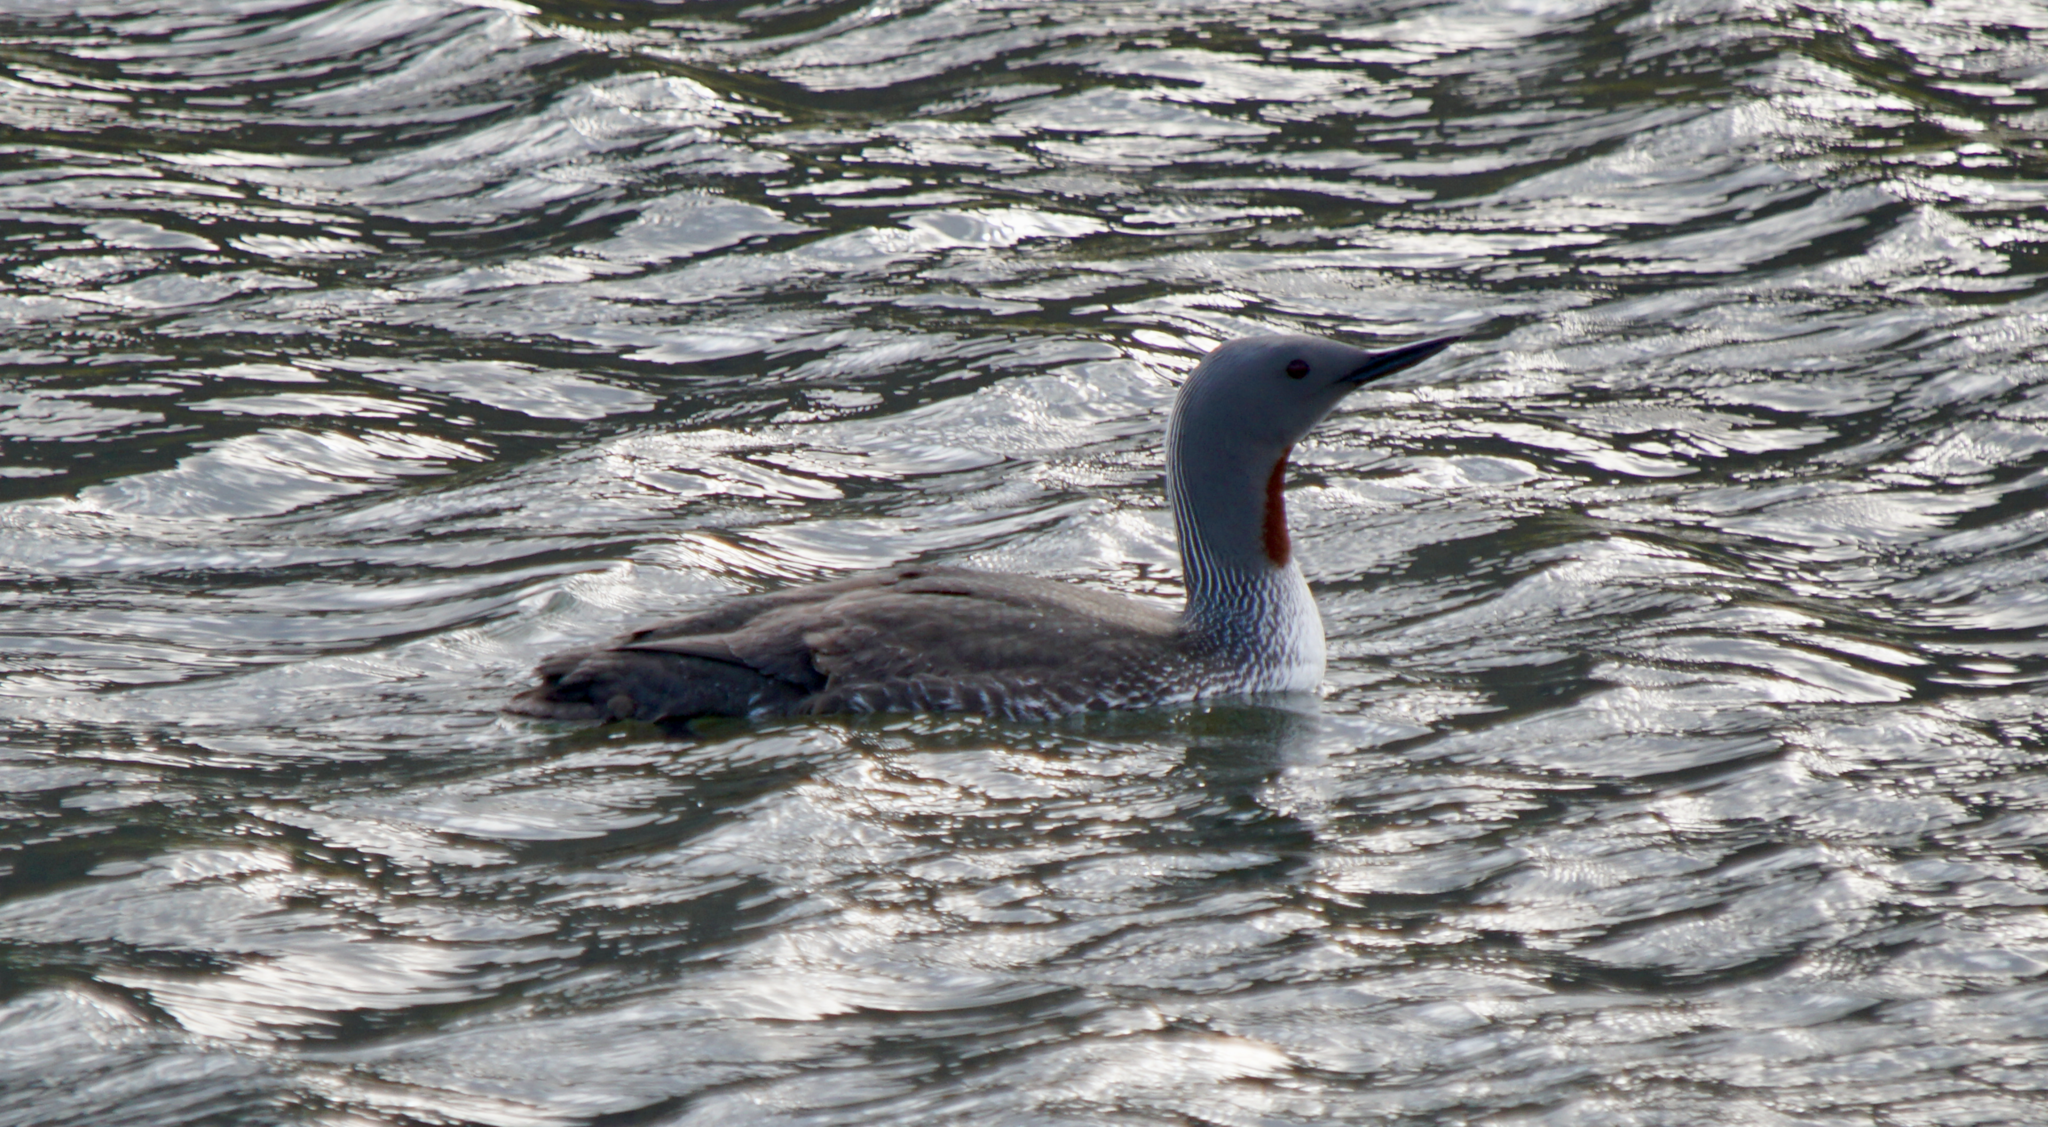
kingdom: Animalia
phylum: Chordata
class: Aves
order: Gaviiformes
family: Gaviidae
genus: Gavia
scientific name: Gavia stellata
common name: Red-throated loon
